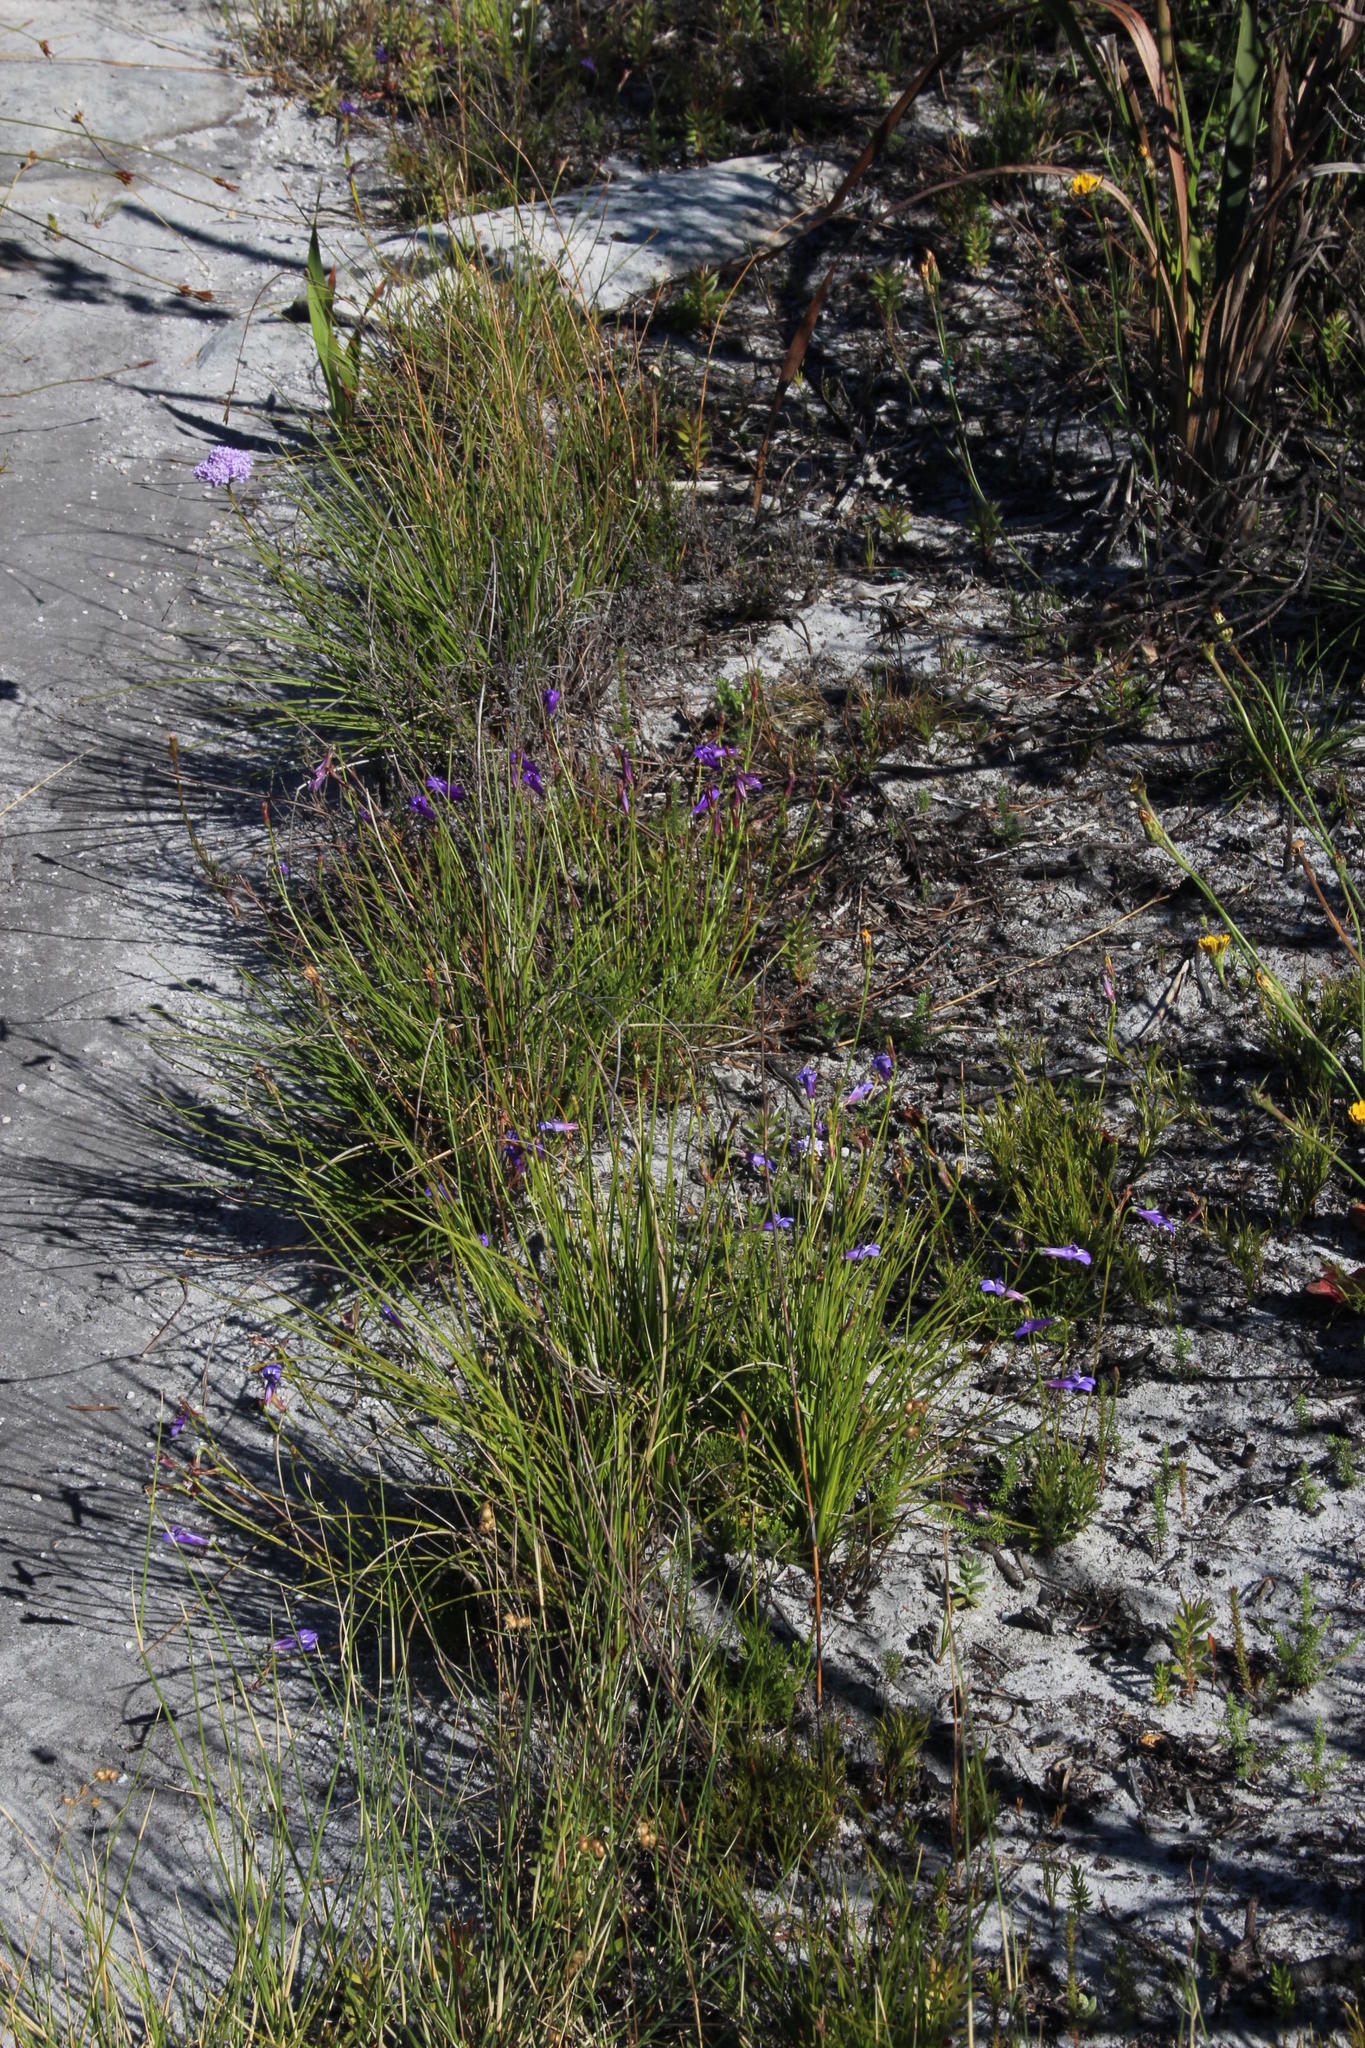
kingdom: Plantae
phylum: Tracheophyta
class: Magnoliopsida
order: Asterales
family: Campanulaceae
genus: Lobelia
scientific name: Lobelia coronopifolia
